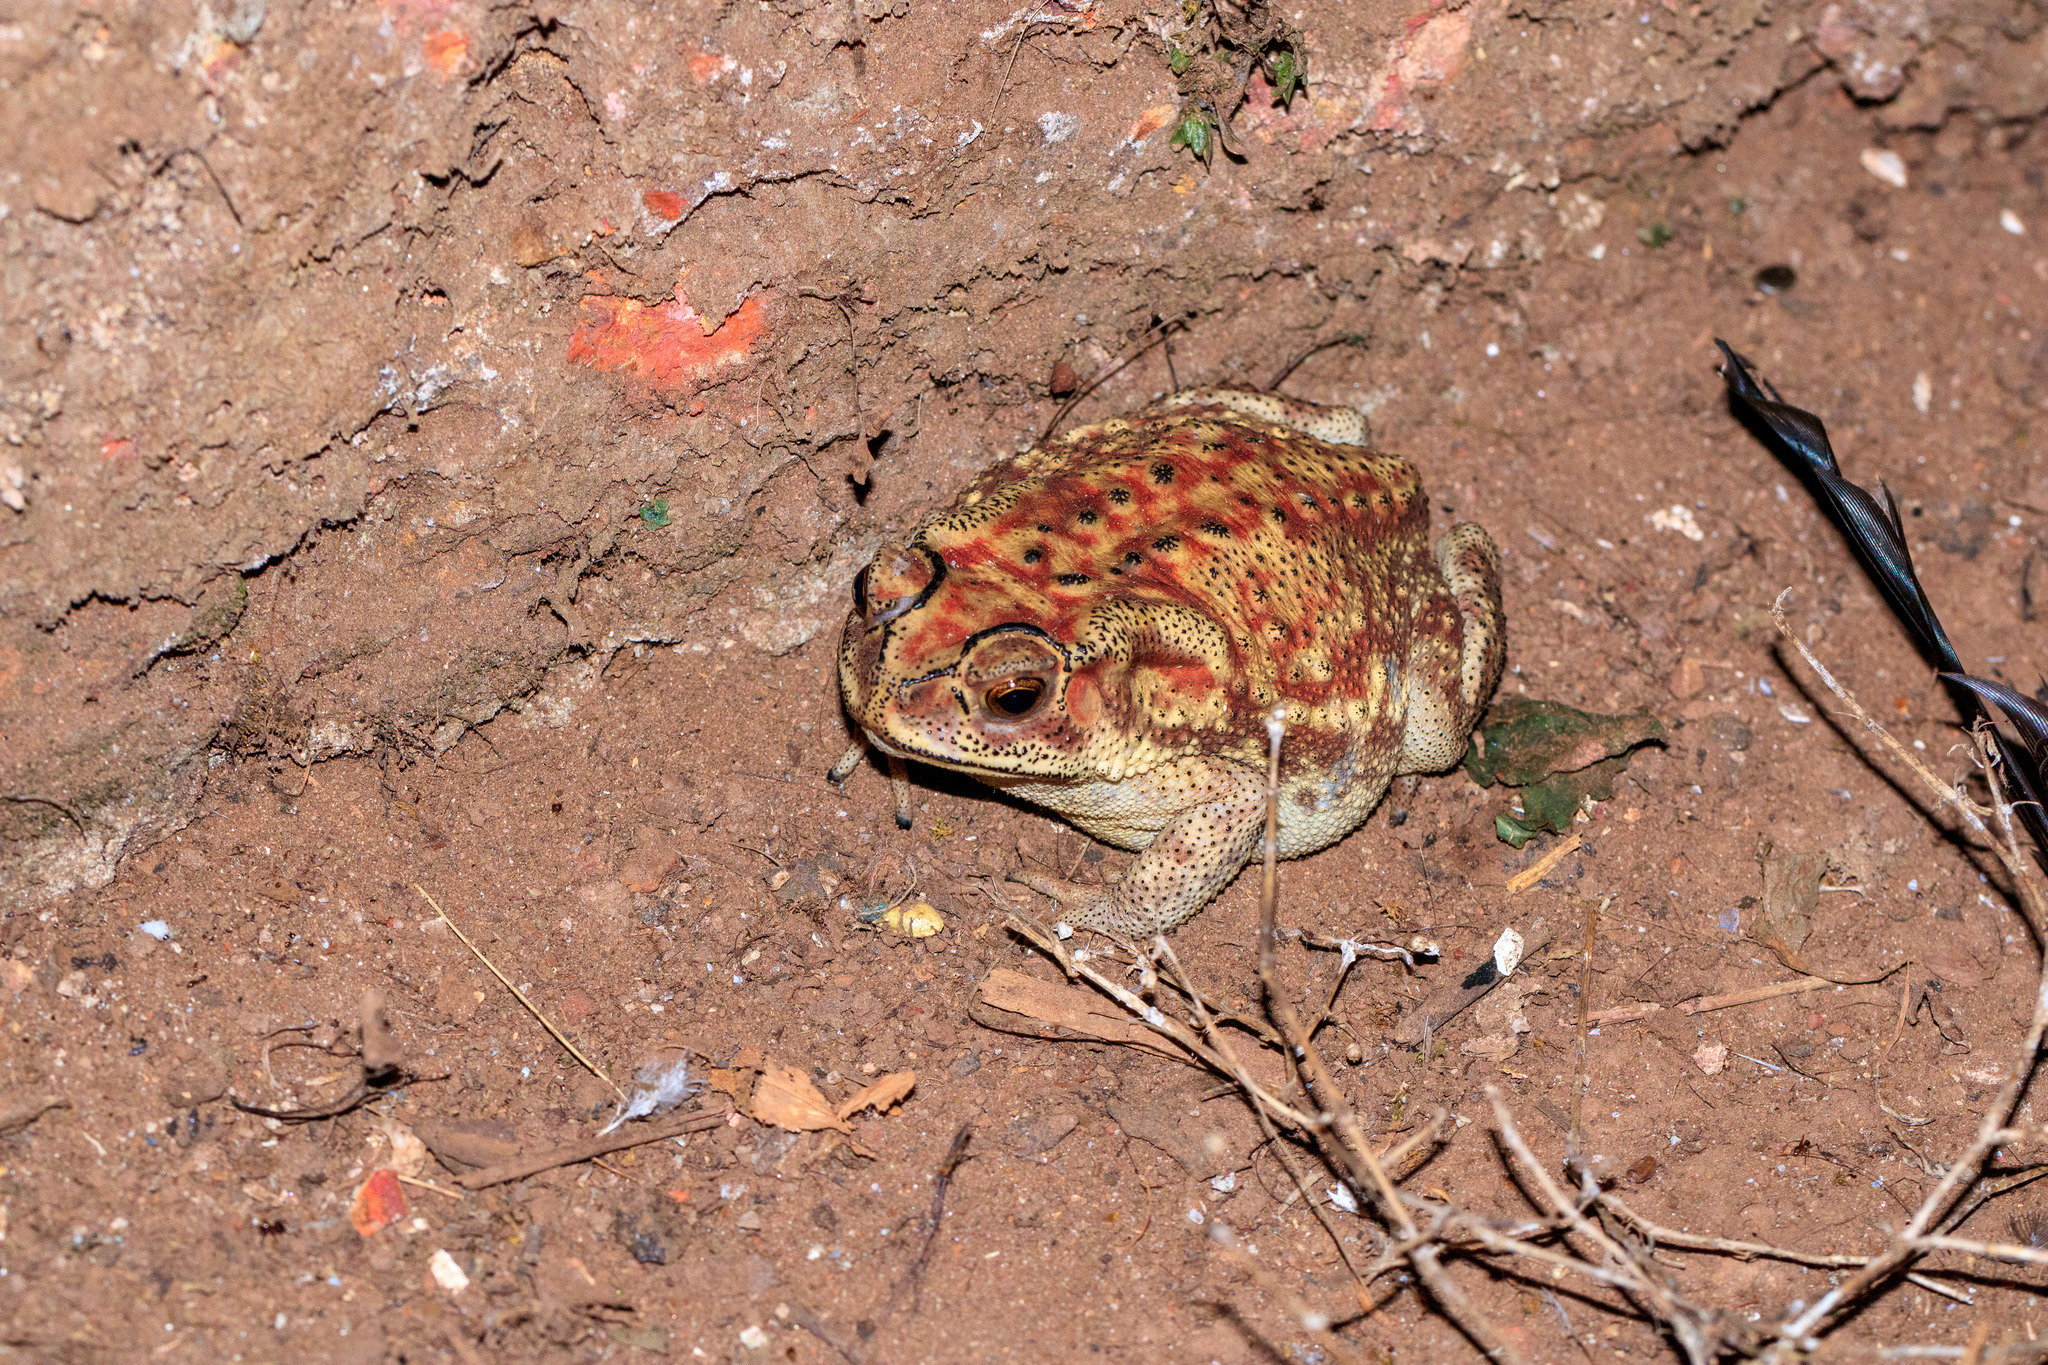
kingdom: Animalia
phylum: Chordata
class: Amphibia
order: Anura
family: Bufonidae
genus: Duttaphrynus
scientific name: Duttaphrynus melanostictus
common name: Common sunda toad
